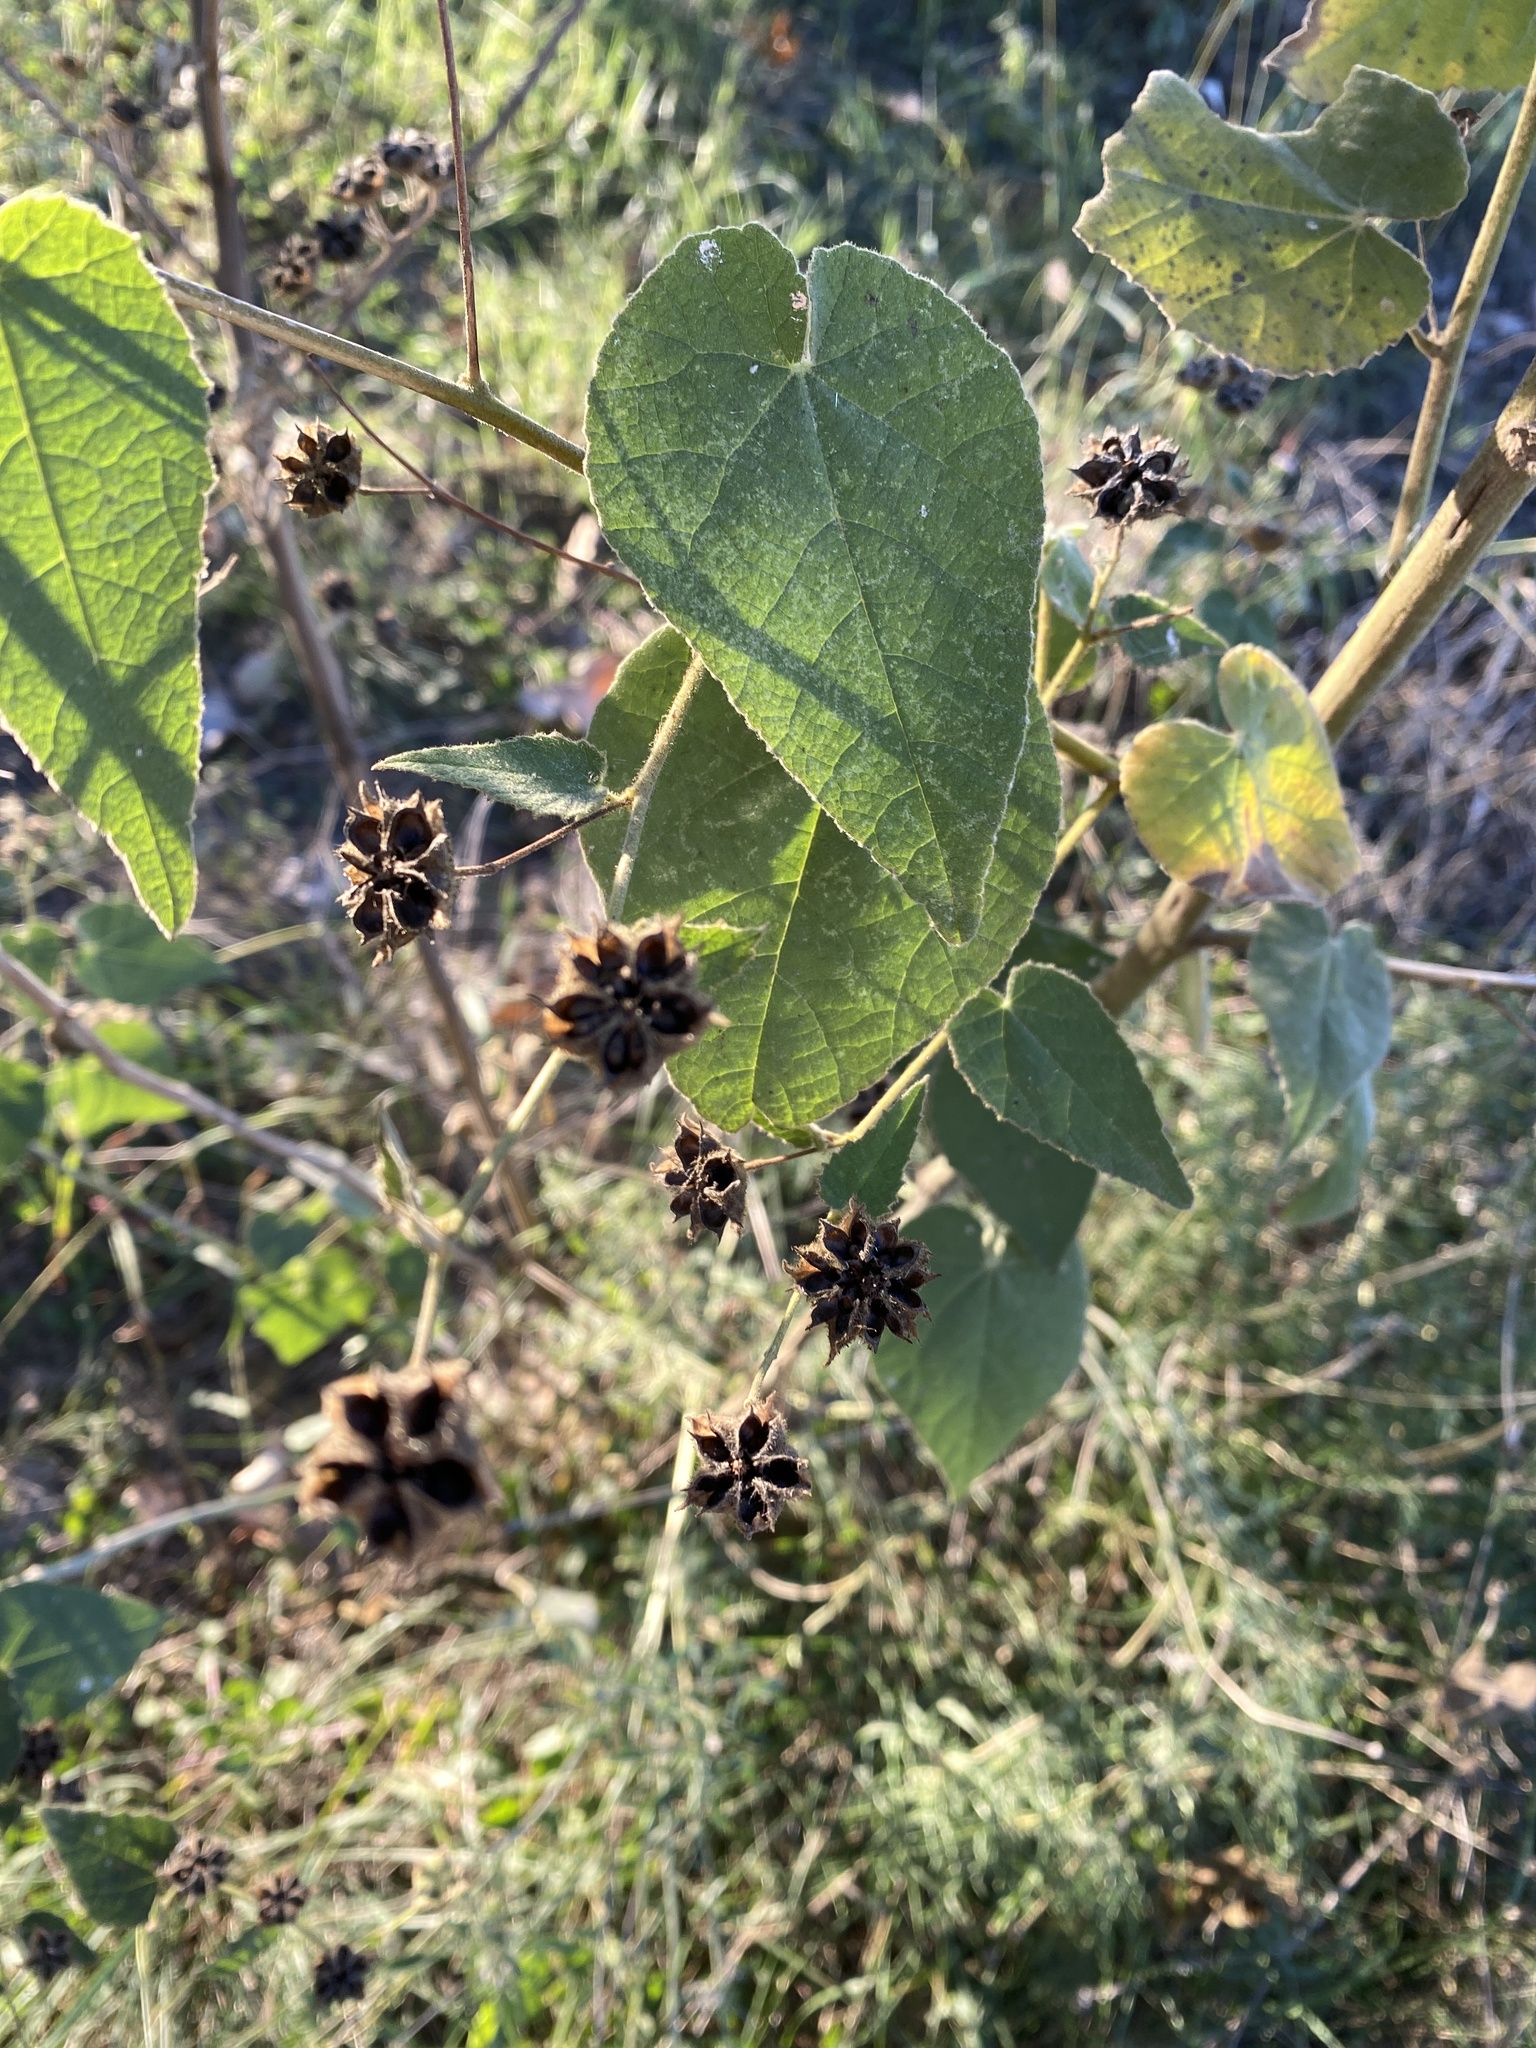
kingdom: Plantae
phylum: Tracheophyta
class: Magnoliopsida
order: Malvales
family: Malvaceae
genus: Allowissadula
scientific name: Allowissadula holosericea
